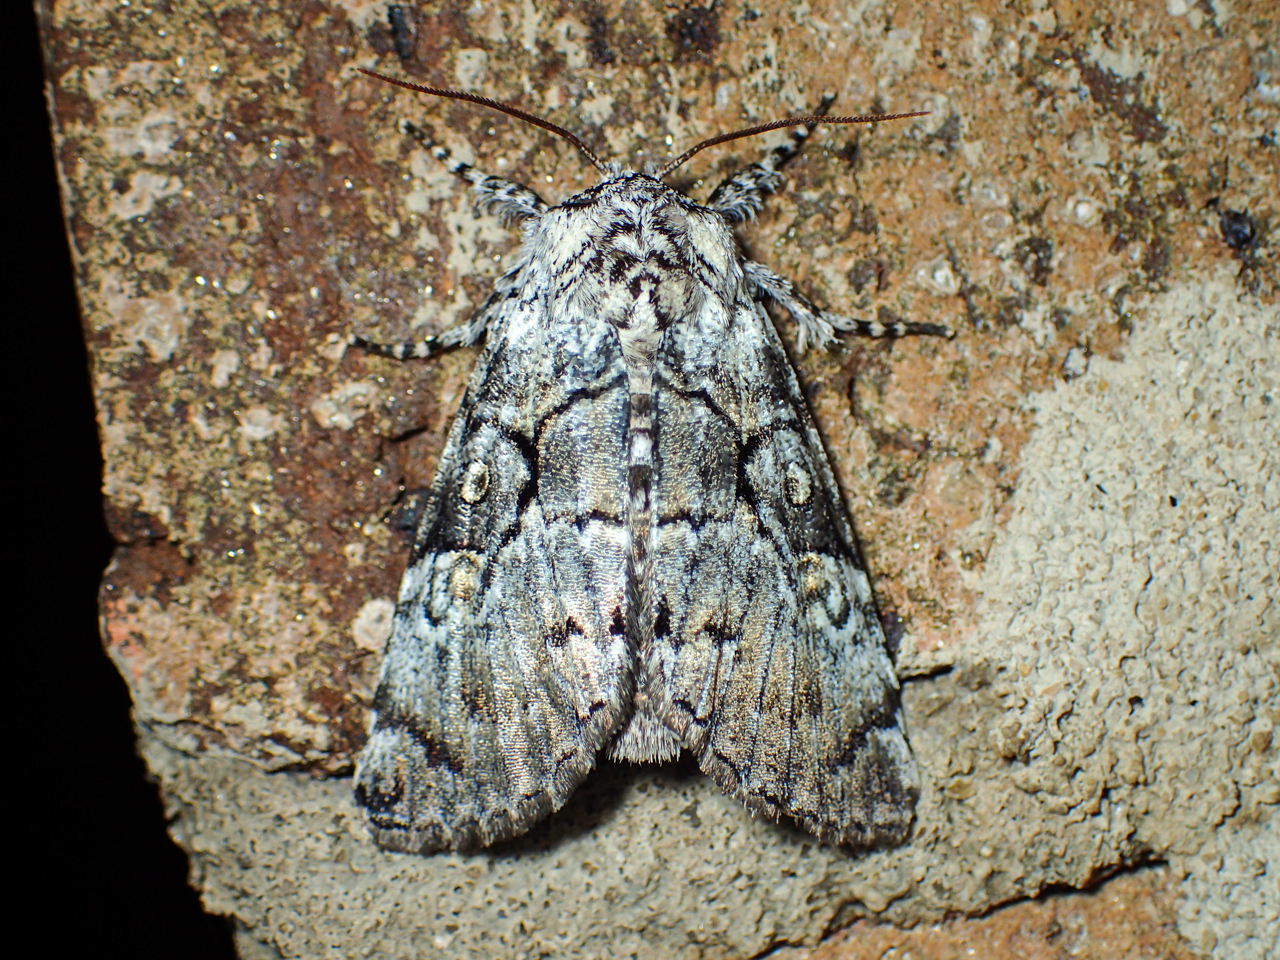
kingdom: Animalia
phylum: Arthropoda
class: Insecta
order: Lepidoptera
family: Noctuidae
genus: Charadra
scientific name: Charadra deridens
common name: Marbled tuffet
